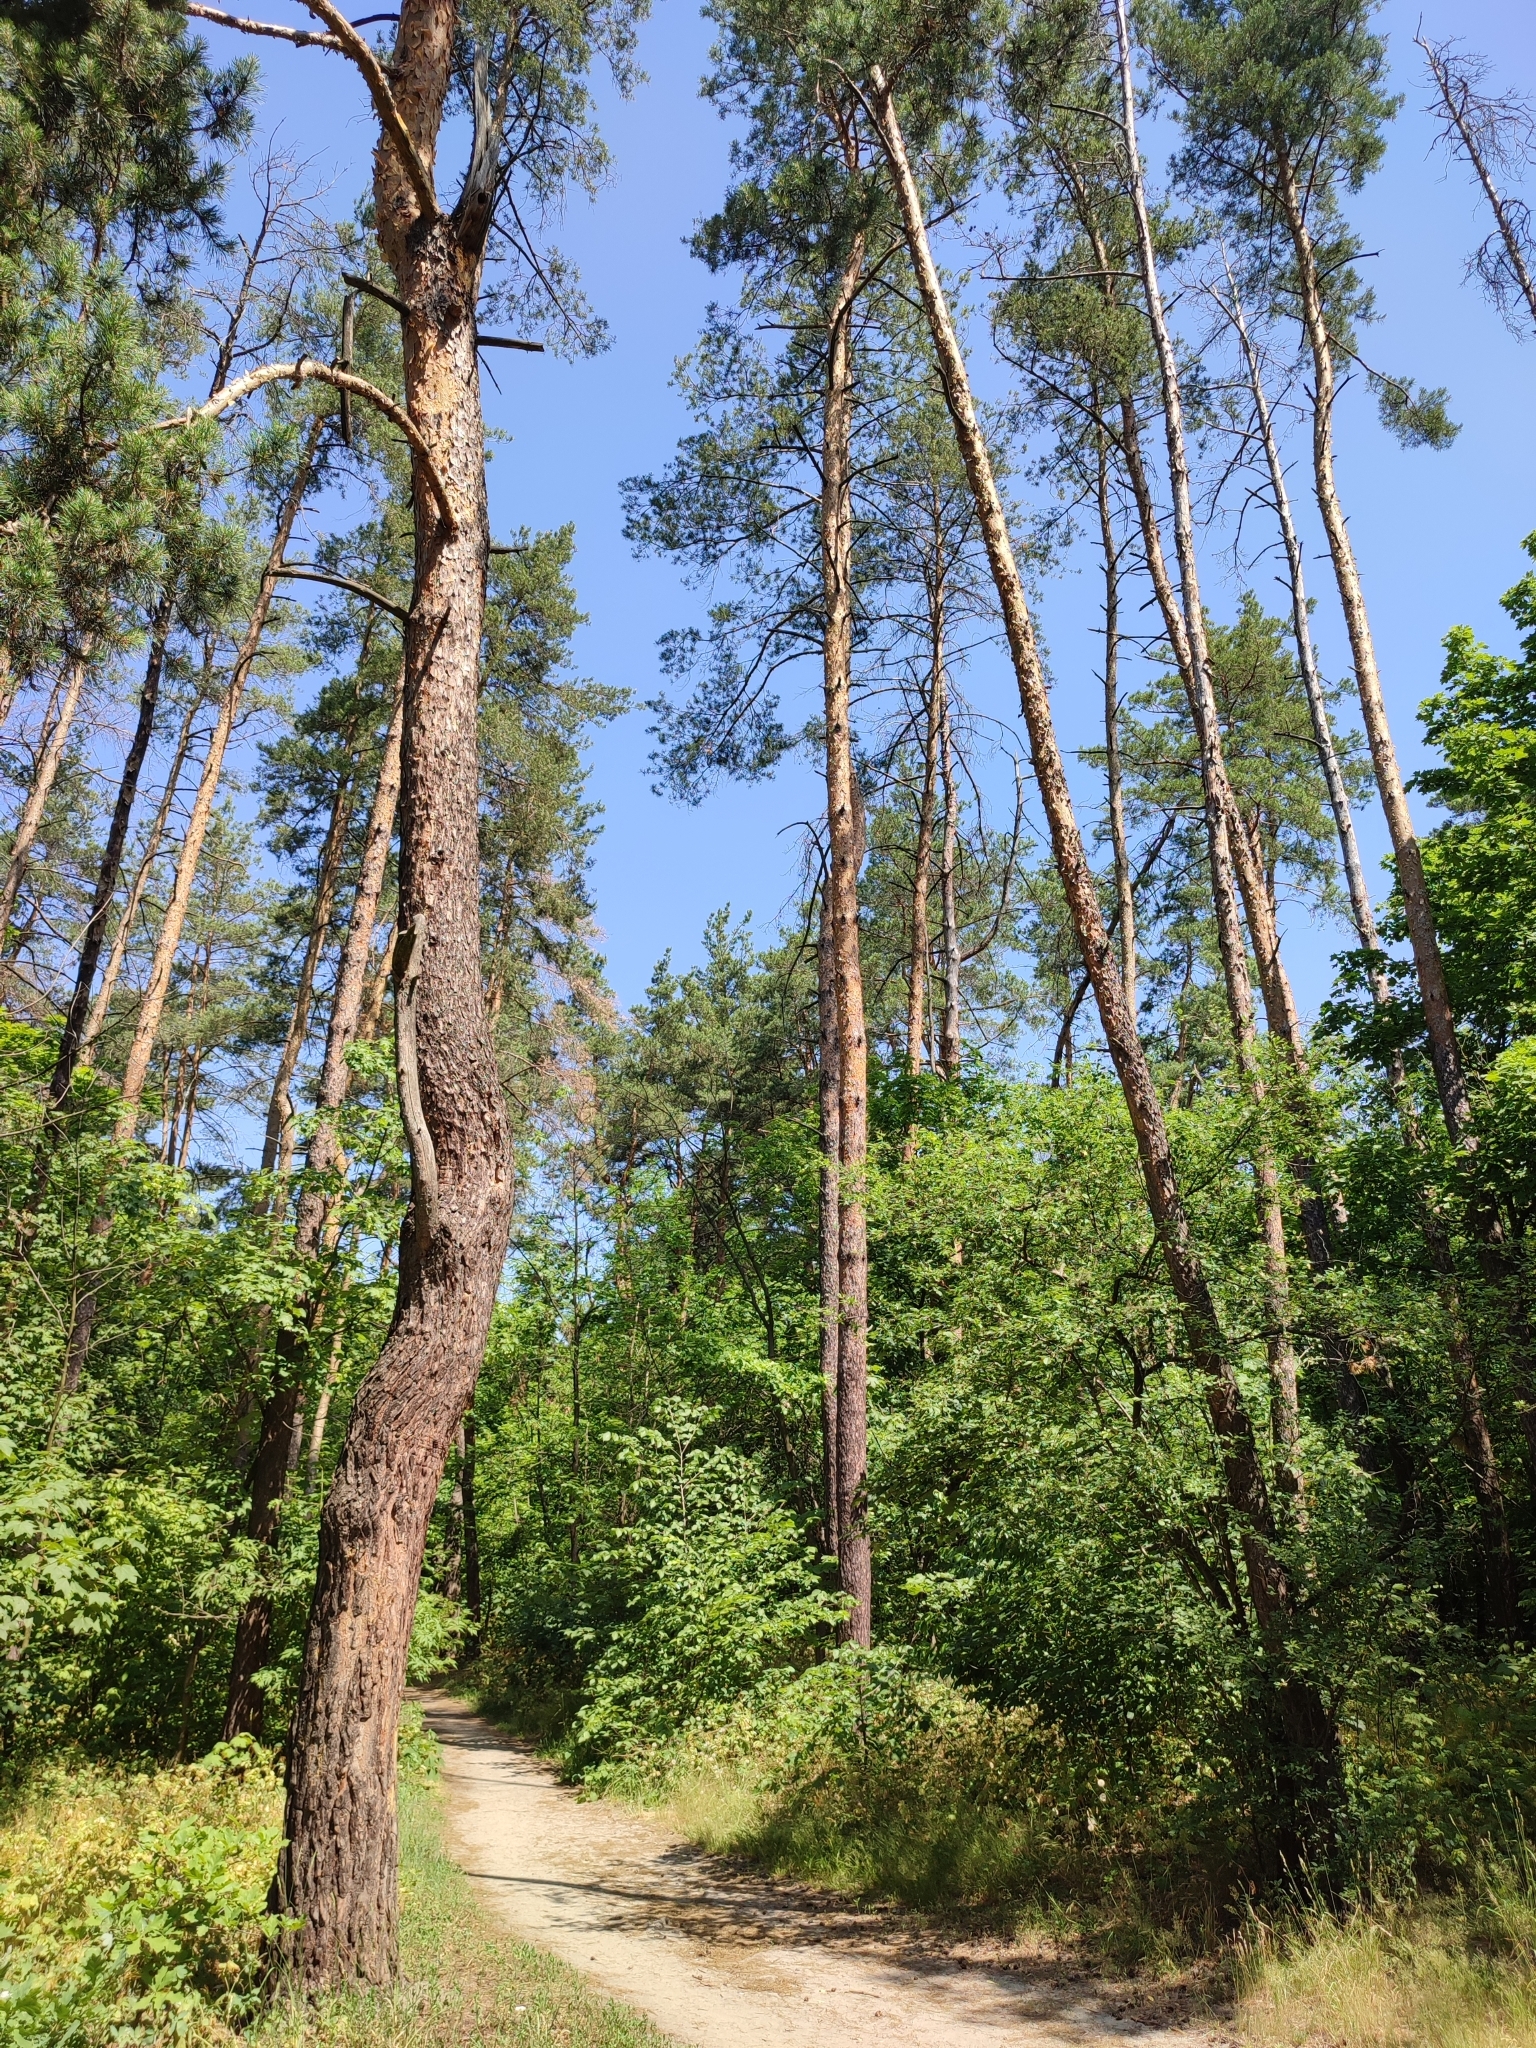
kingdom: Plantae
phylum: Tracheophyta
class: Pinopsida
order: Pinales
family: Pinaceae
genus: Pinus
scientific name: Pinus sylvestris
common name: Scots pine
